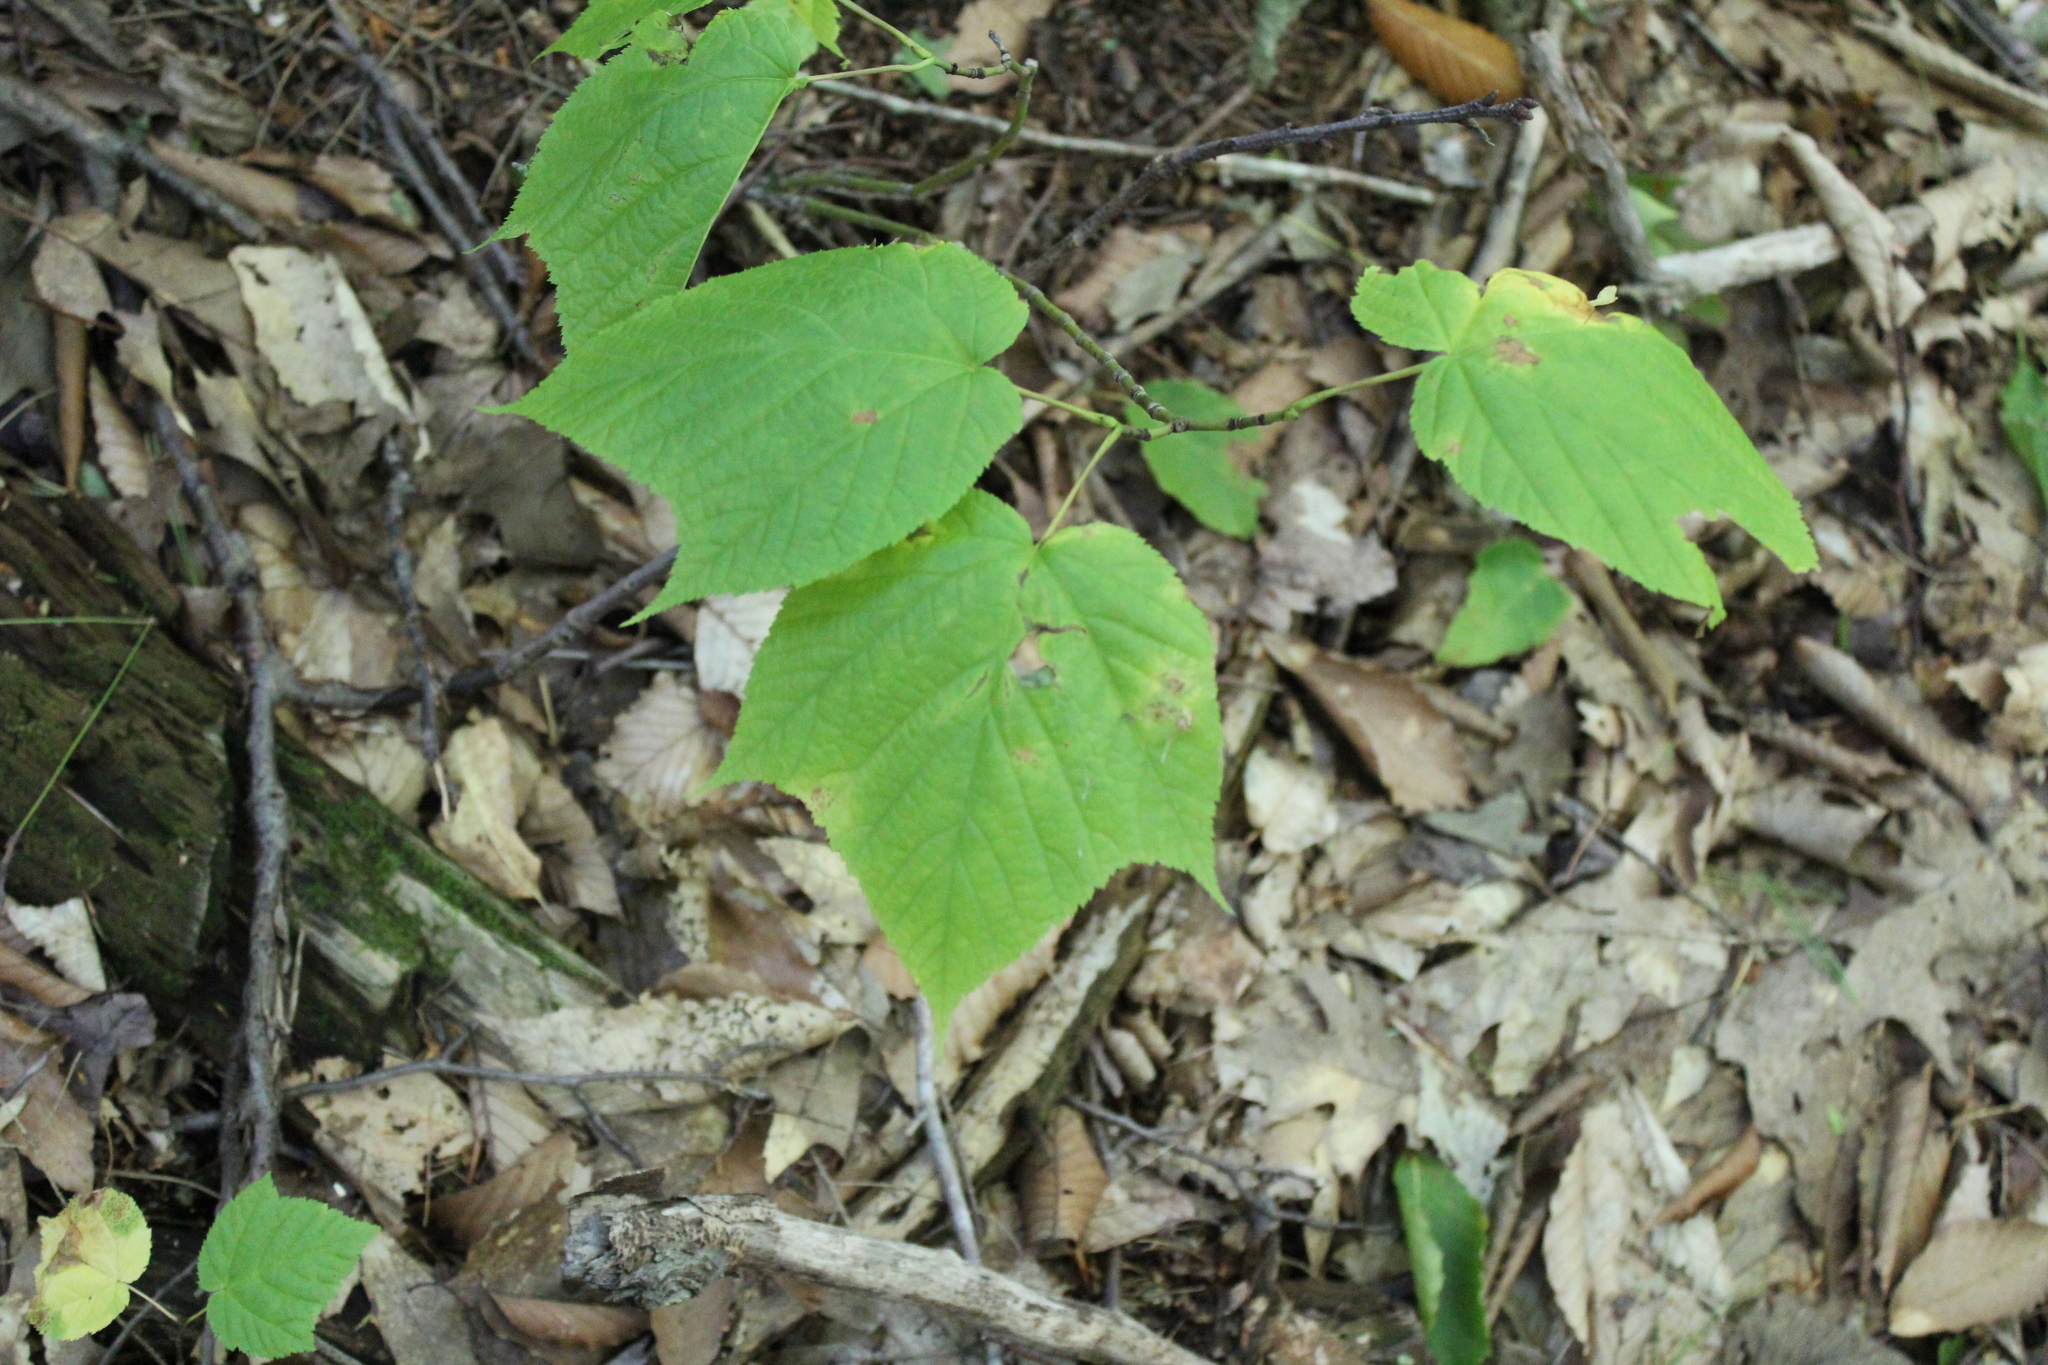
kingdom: Plantae
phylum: Tracheophyta
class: Magnoliopsida
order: Sapindales
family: Sapindaceae
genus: Acer
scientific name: Acer pensylvanicum
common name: Moosewood
